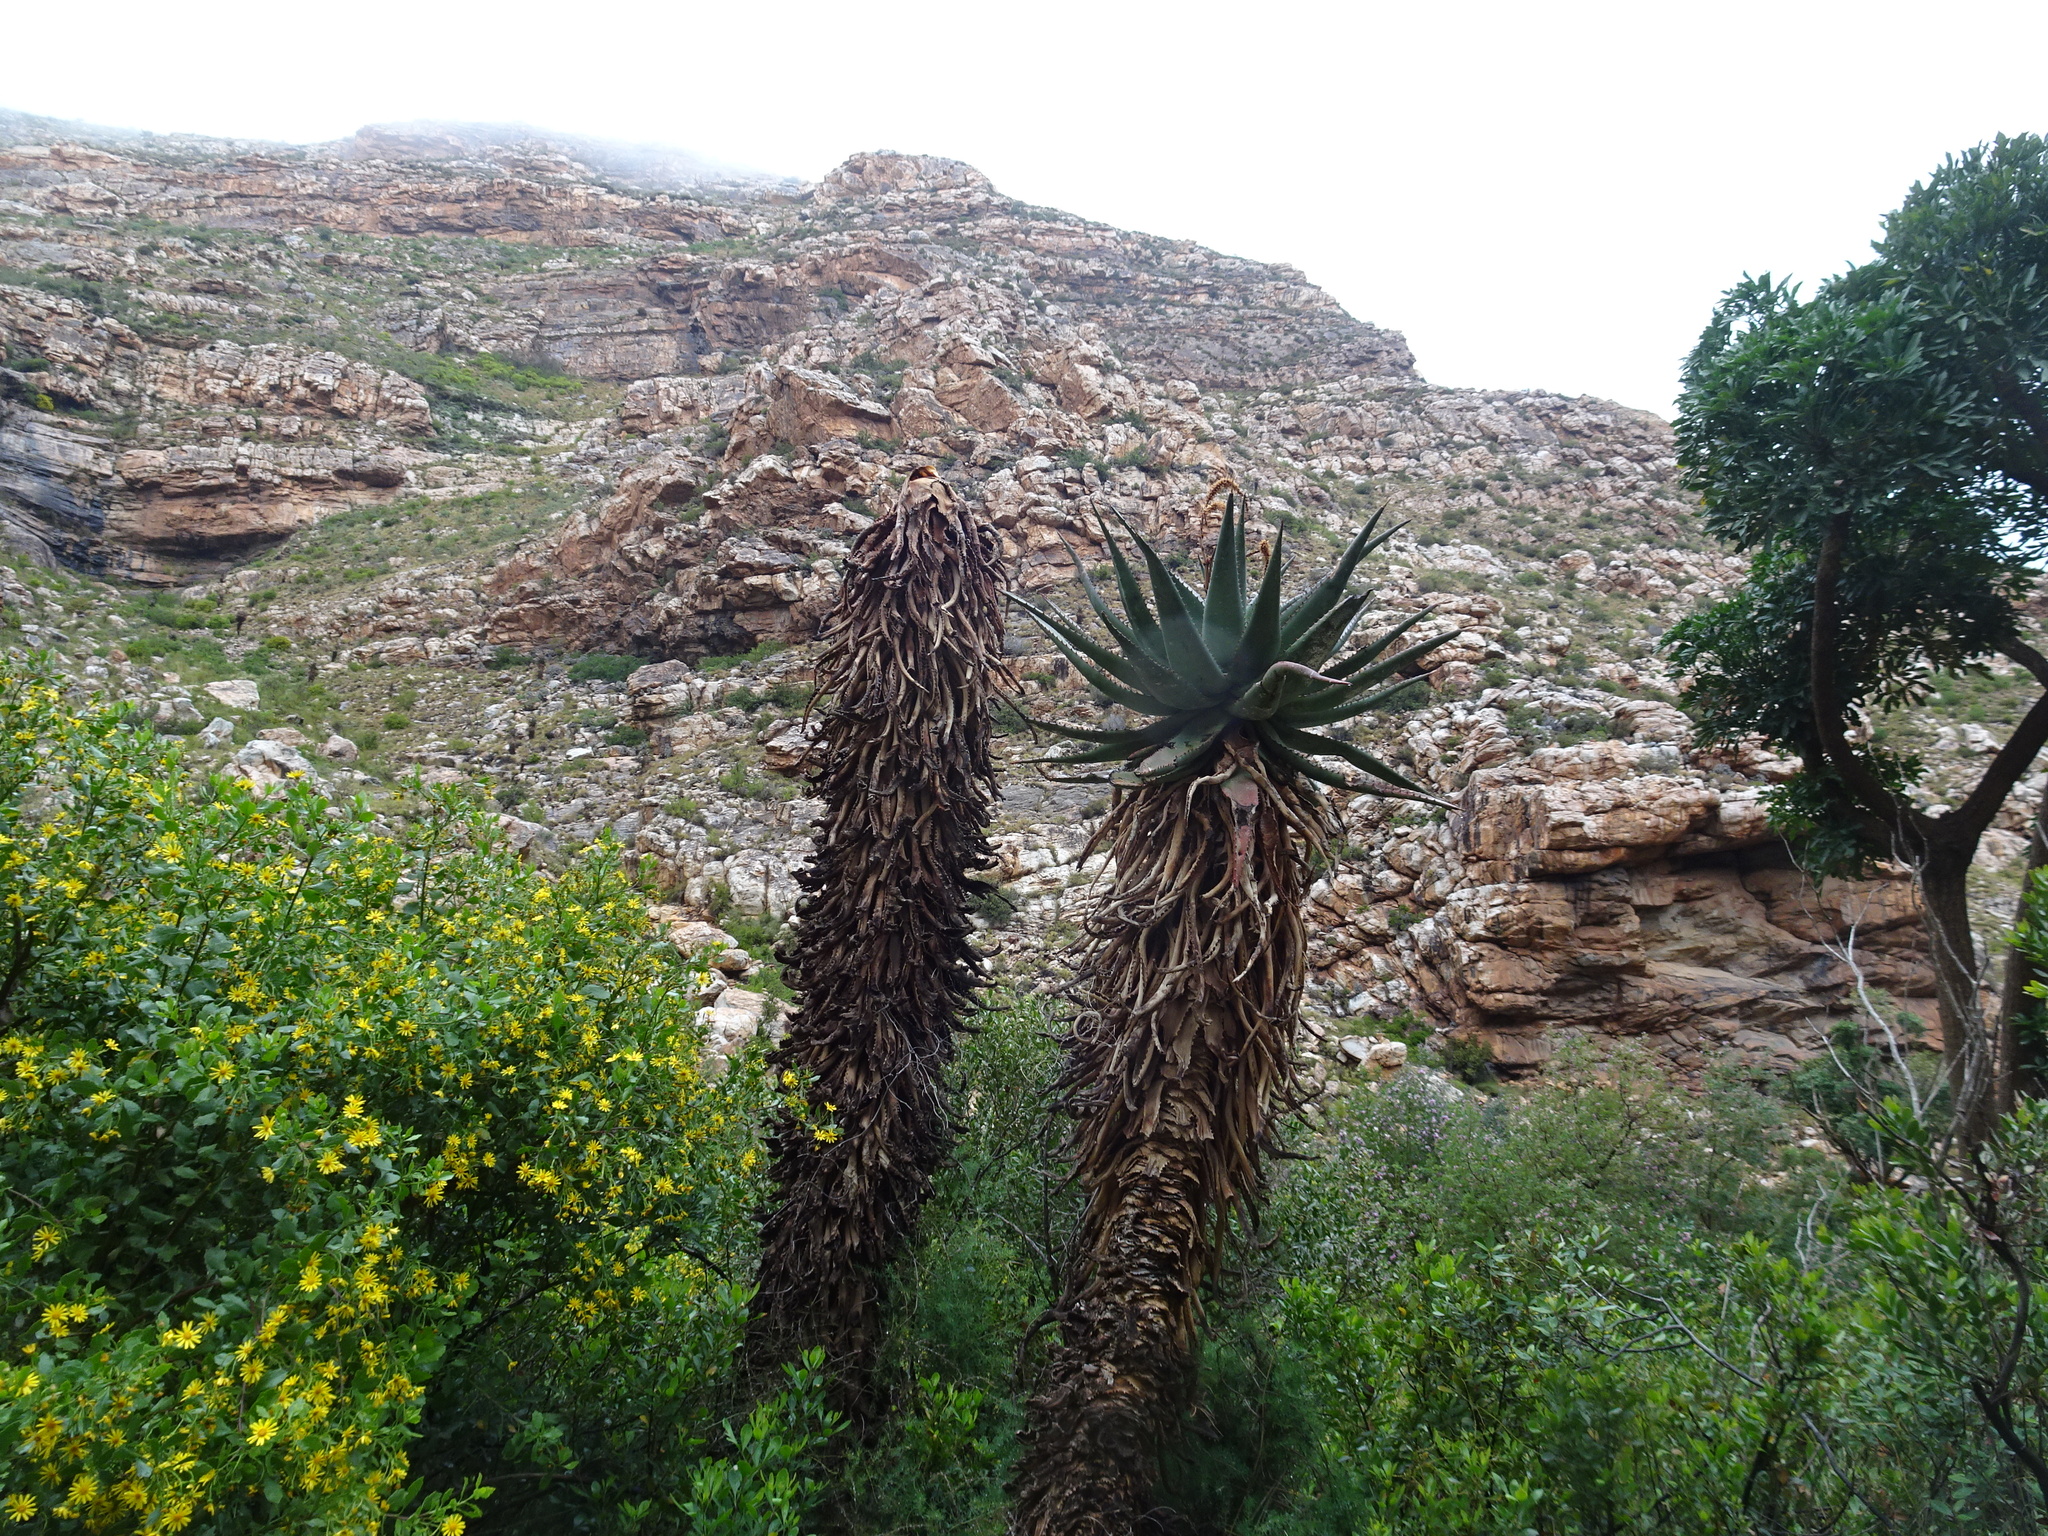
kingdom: Plantae
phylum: Tracheophyta
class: Liliopsida
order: Asparagales
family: Asphodelaceae
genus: Aloe
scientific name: Aloe ferox
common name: Bitter aloe
